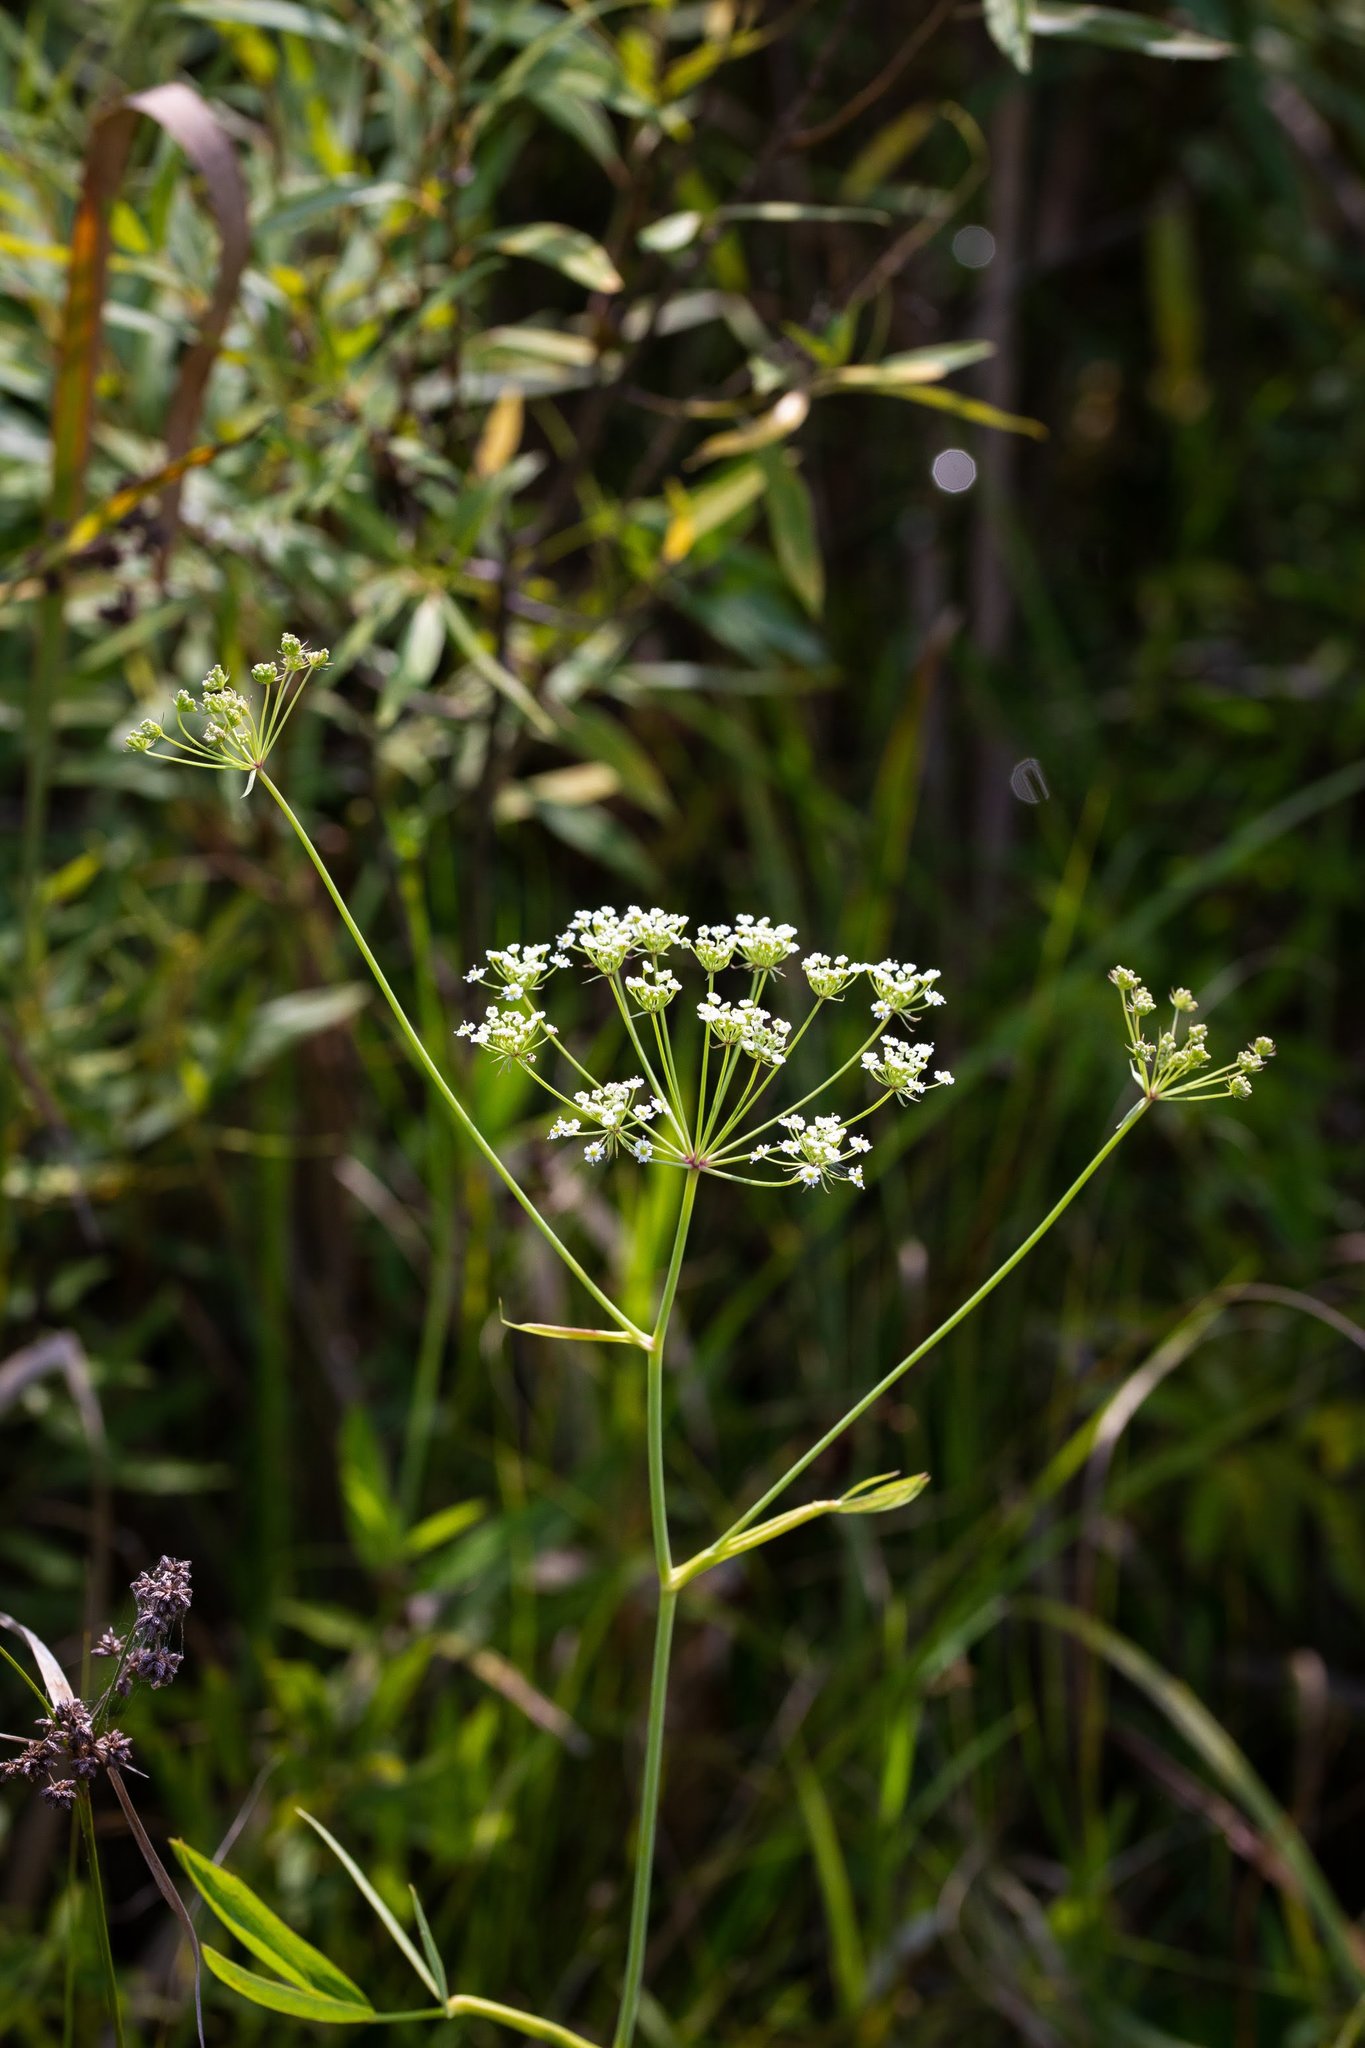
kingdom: Plantae
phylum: Tracheophyta
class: Magnoliopsida
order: Apiales
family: Apiaceae
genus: Oxypolis
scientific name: Oxypolis rigidior
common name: Cowbane
